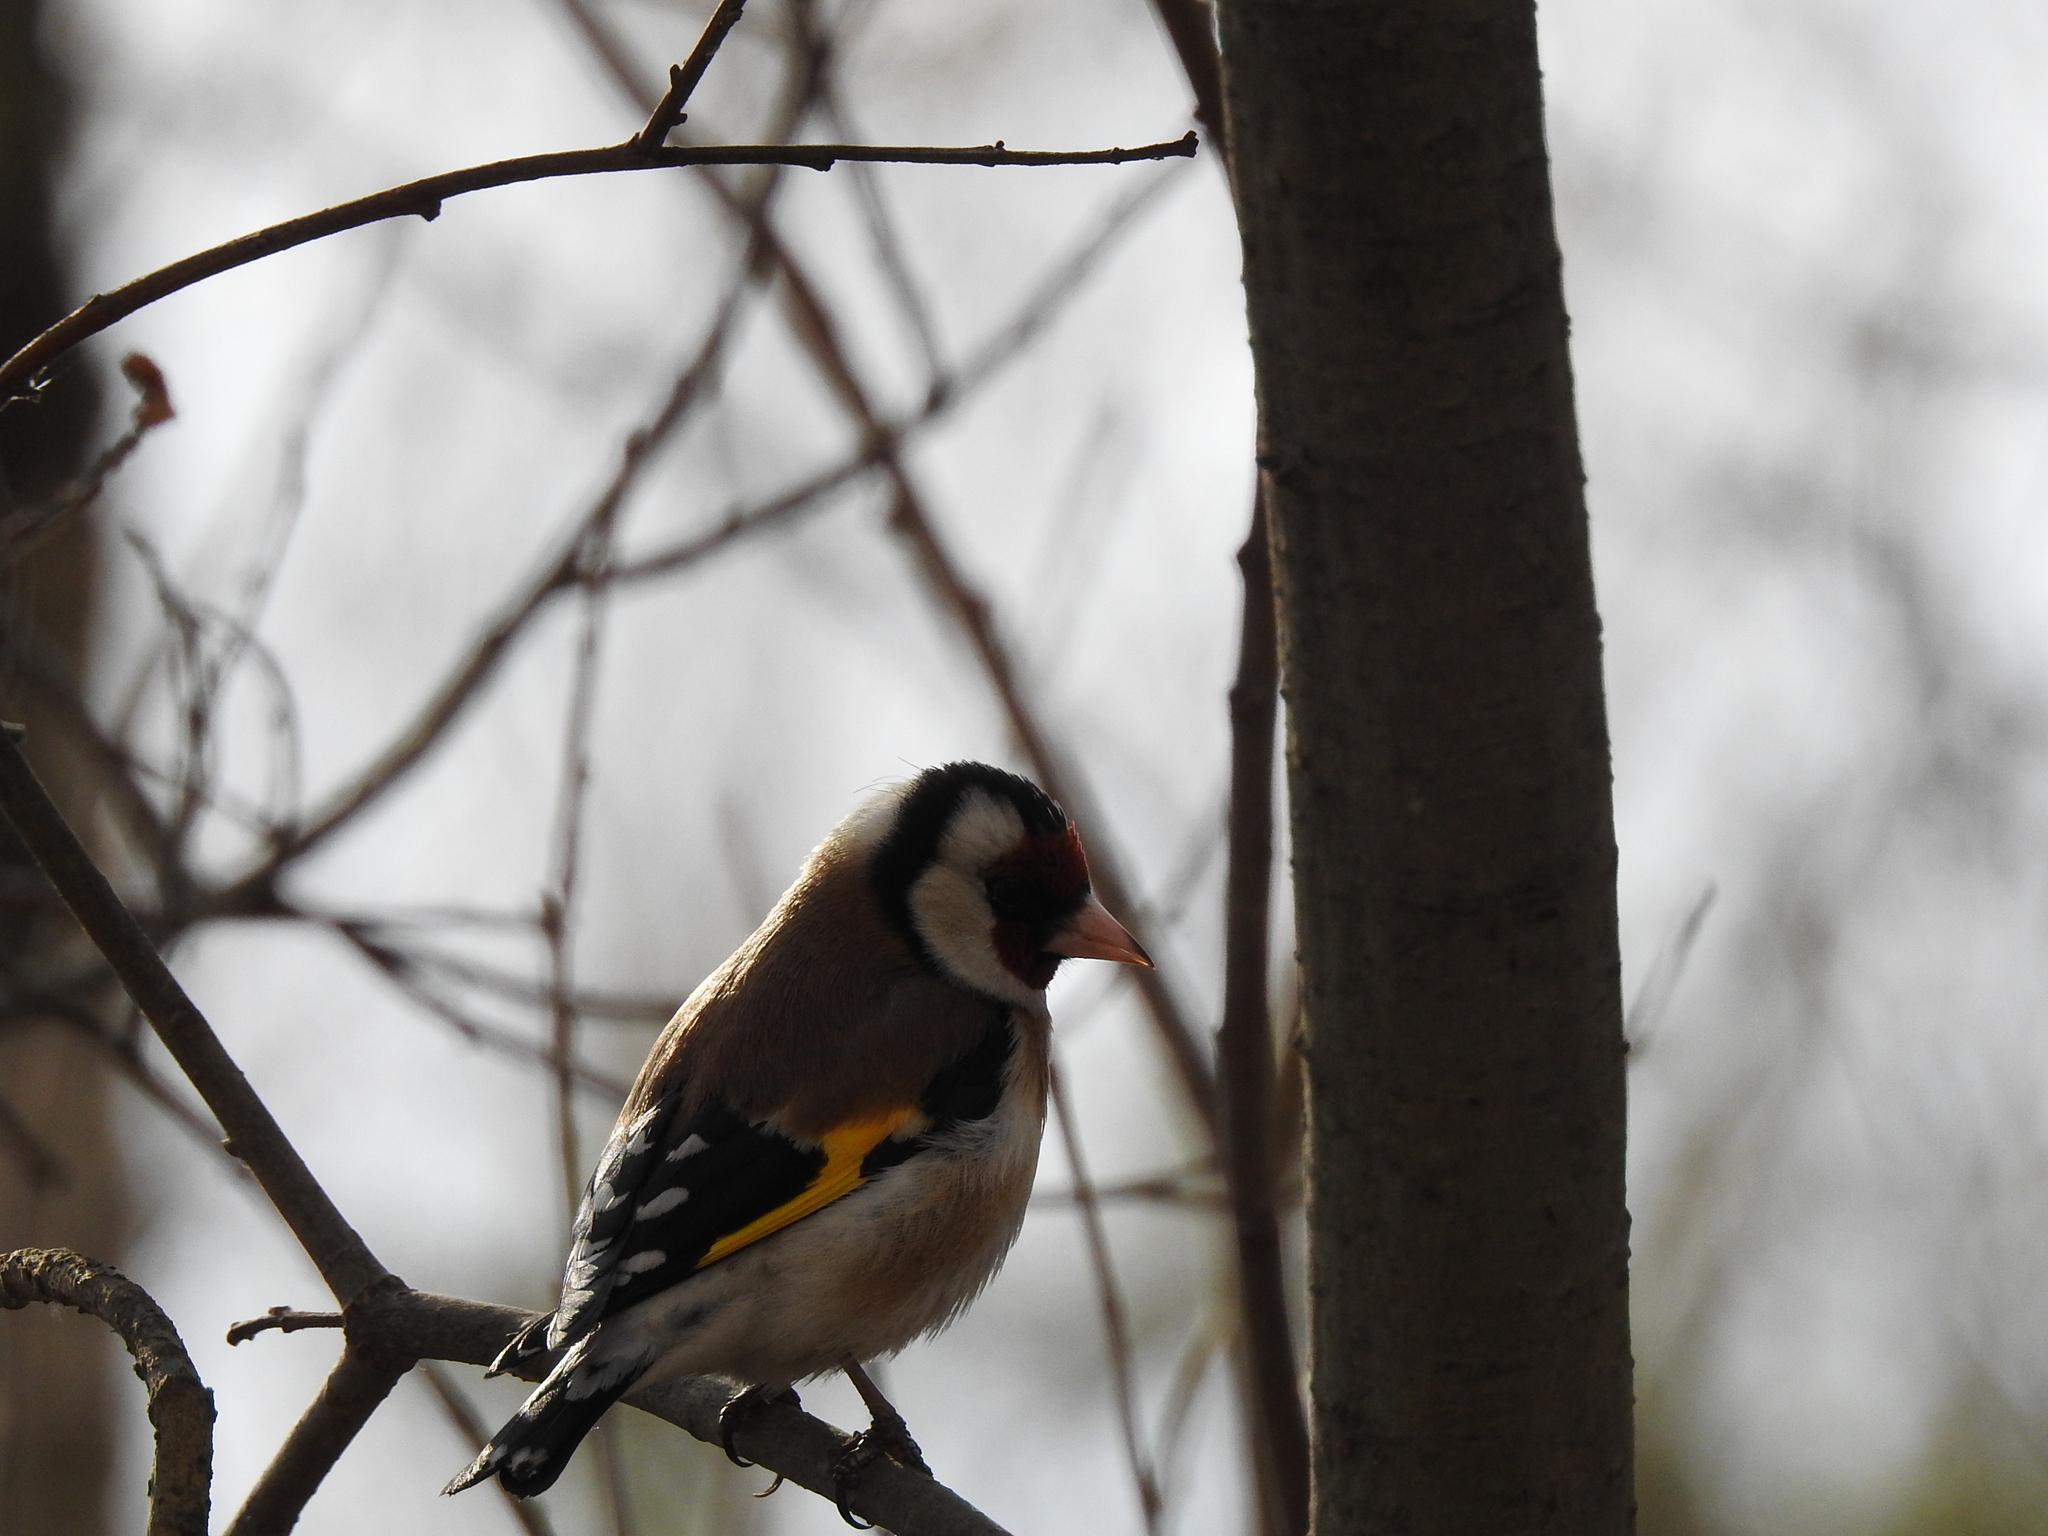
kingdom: Animalia
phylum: Chordata
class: Aves
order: Passeriformes
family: Fringillidae
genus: Carduelis
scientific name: Carduelis carduelis
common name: European goldfinch
